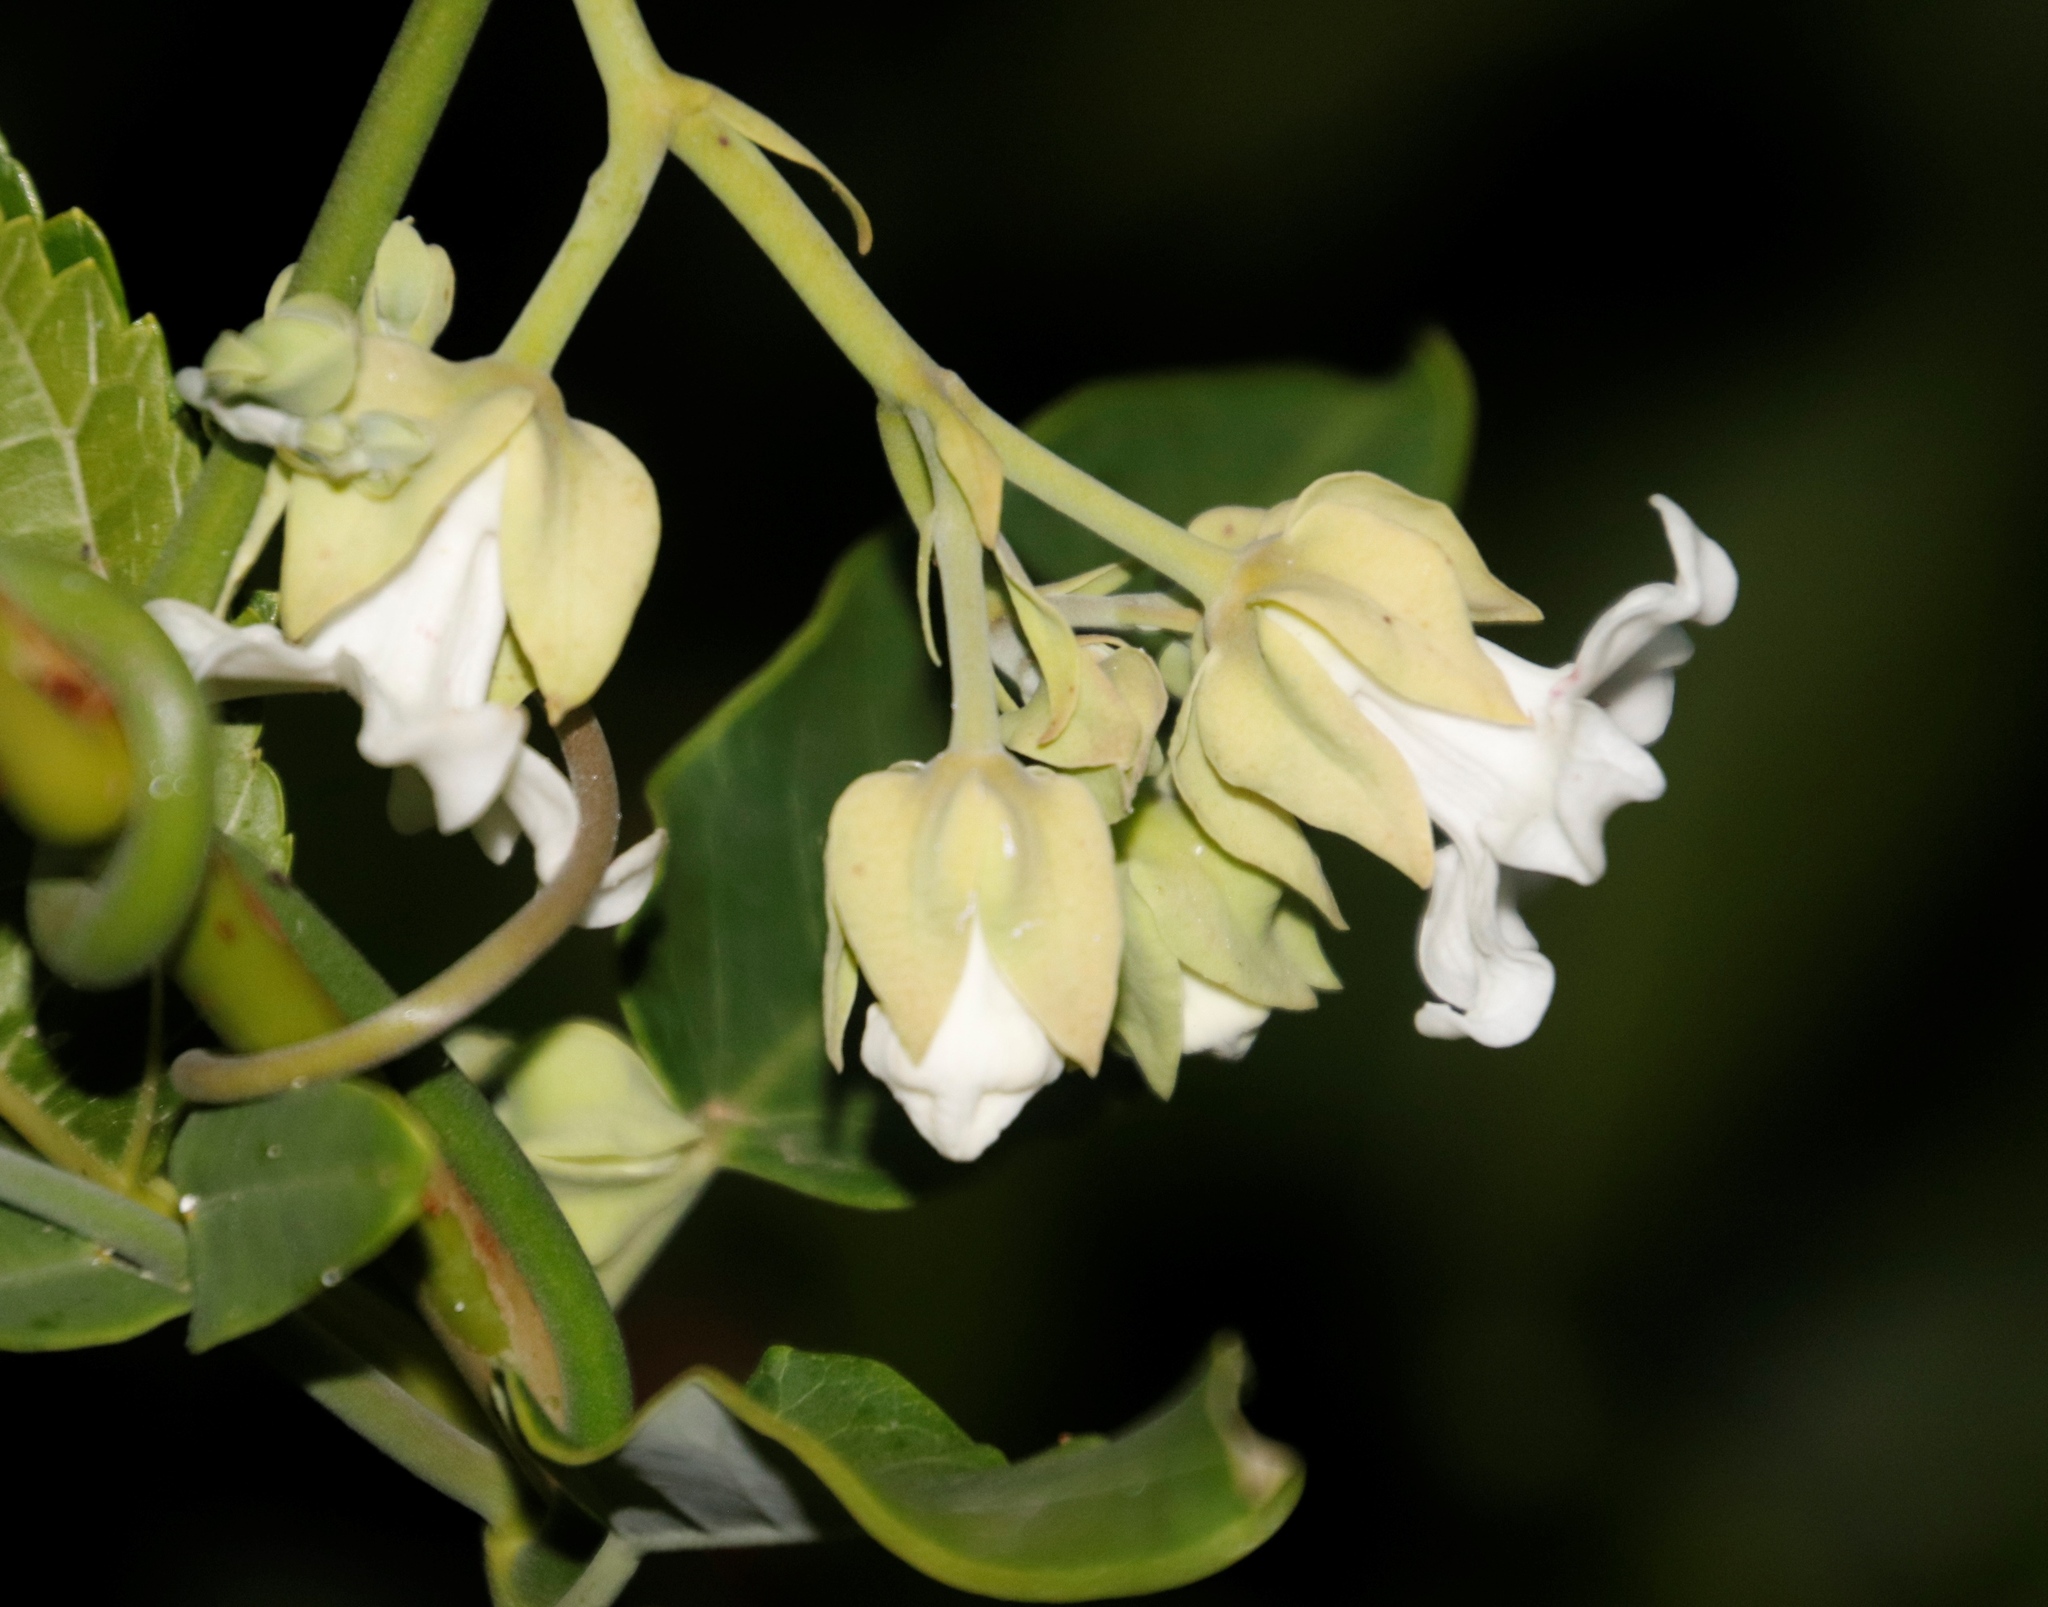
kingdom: Plantae
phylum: Tracheophyta
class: Magnoliopsida
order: Gentianales
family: Apocynaceae
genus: Araujia
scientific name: Araujia sericifera
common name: White bladderflower
